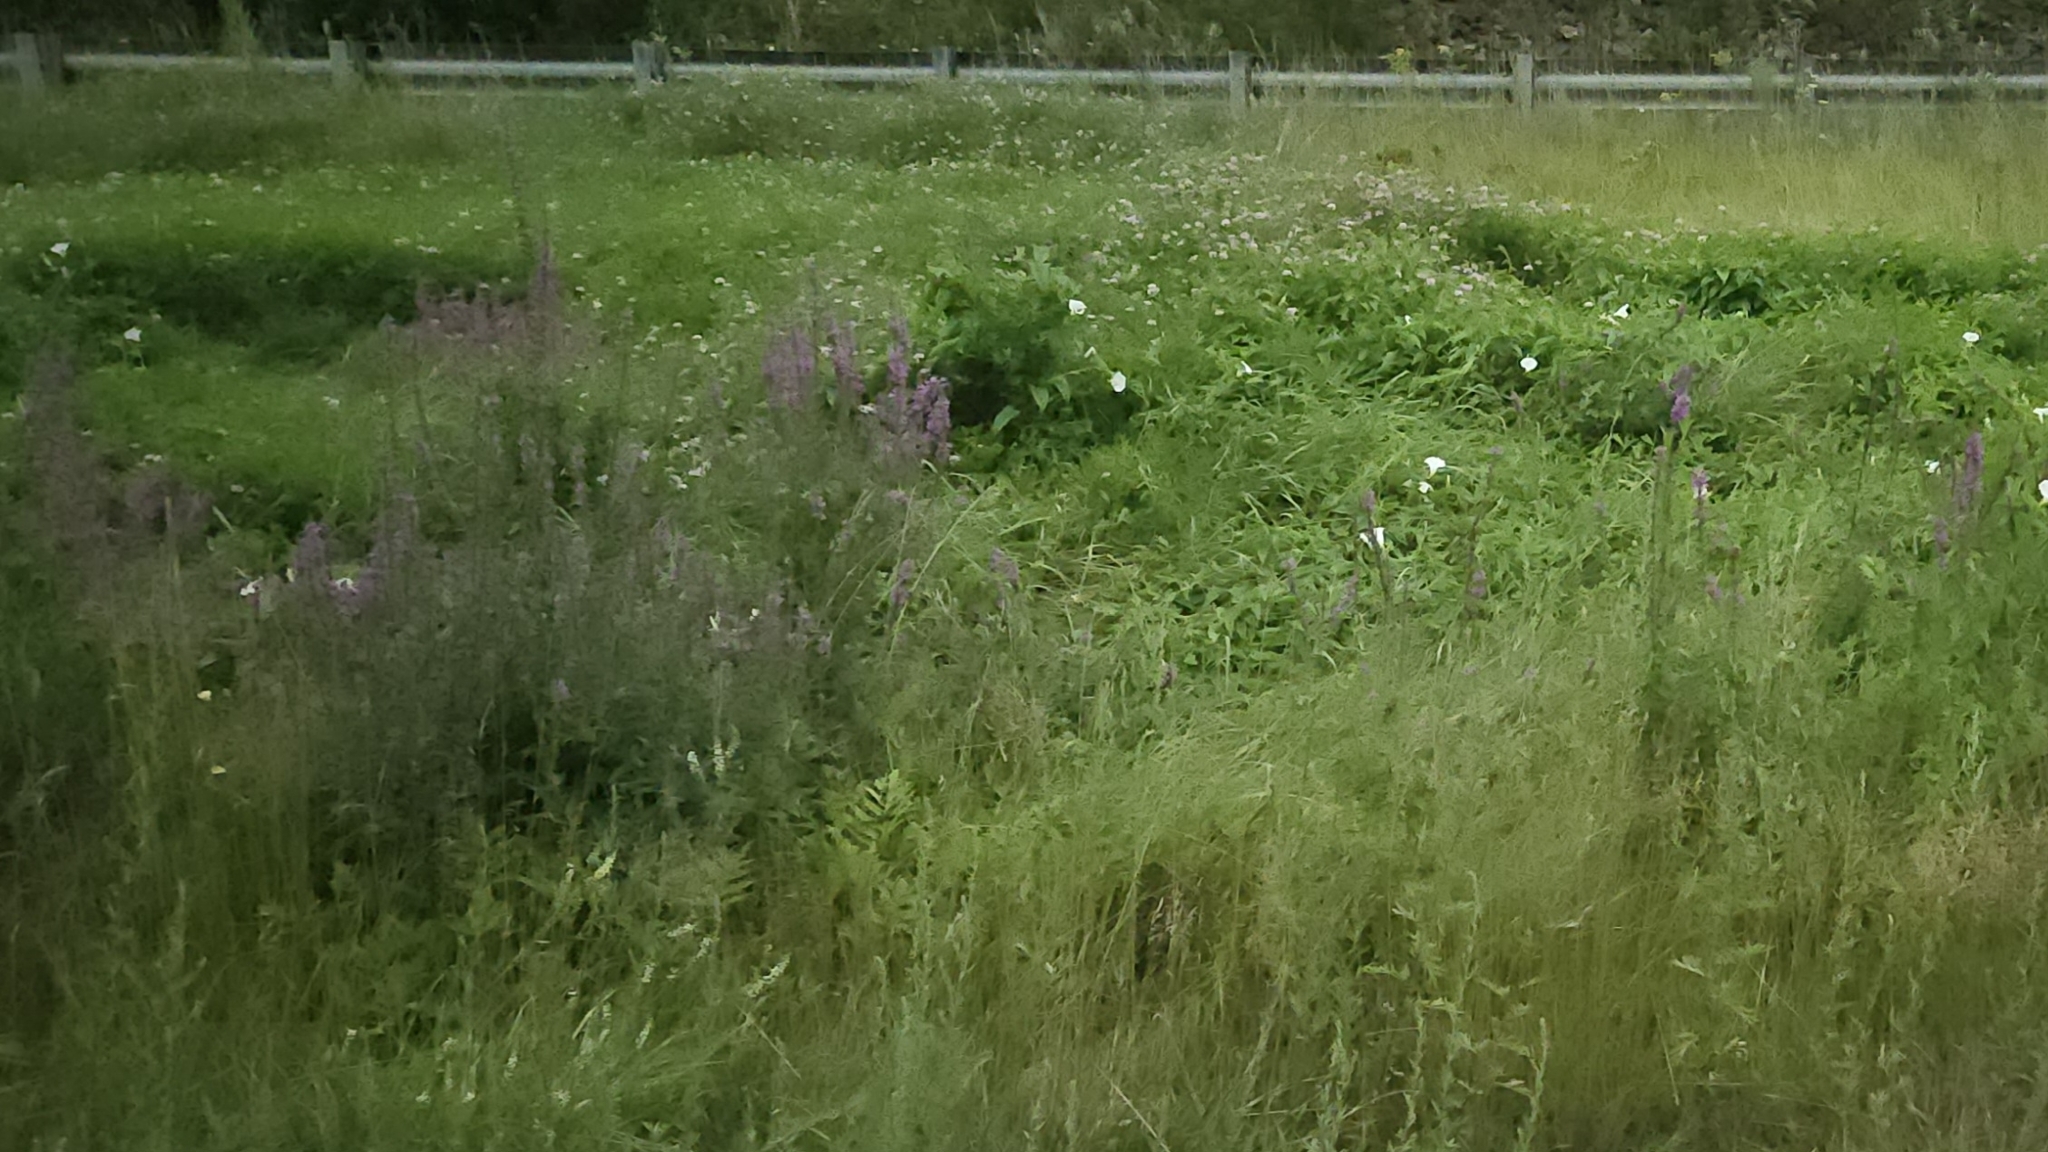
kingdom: Plantae
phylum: Tracheophyta
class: Magnoliopsida
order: Myrtales
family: Lythraceae
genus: Lythrum
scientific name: Lythrum salicaria
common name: Purple loosestrife
